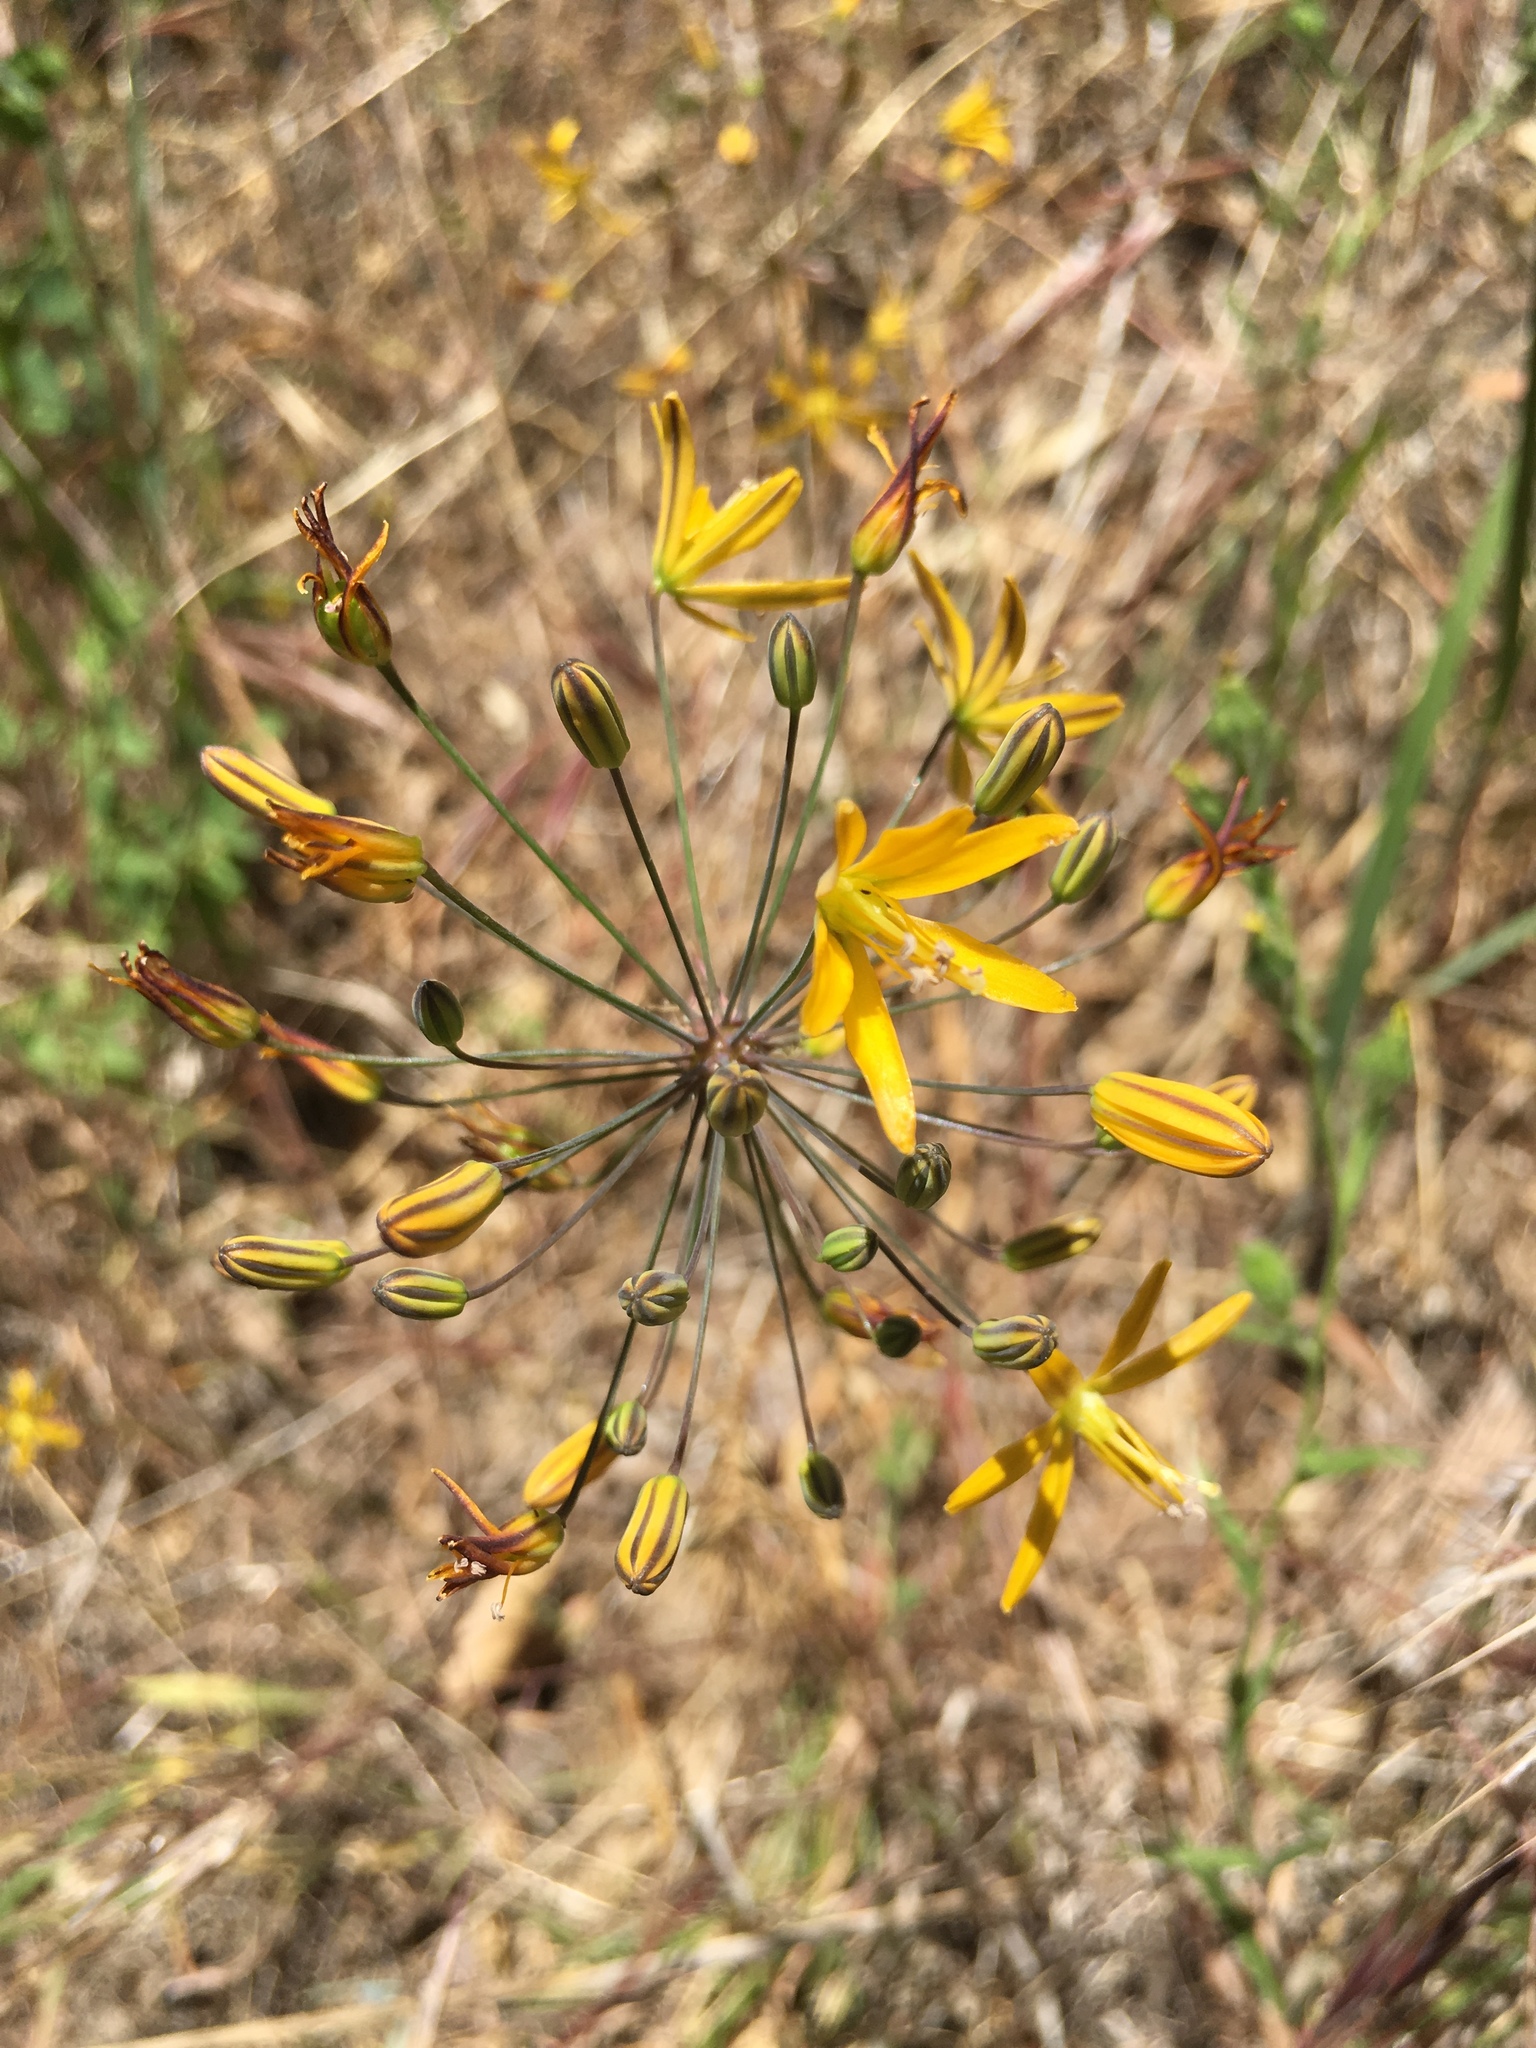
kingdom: Plantae
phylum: Tracheophyta
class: Liliopsida
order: Asparagales
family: Asparagaceae
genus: Bloomeria
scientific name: Bloomeria crocea
